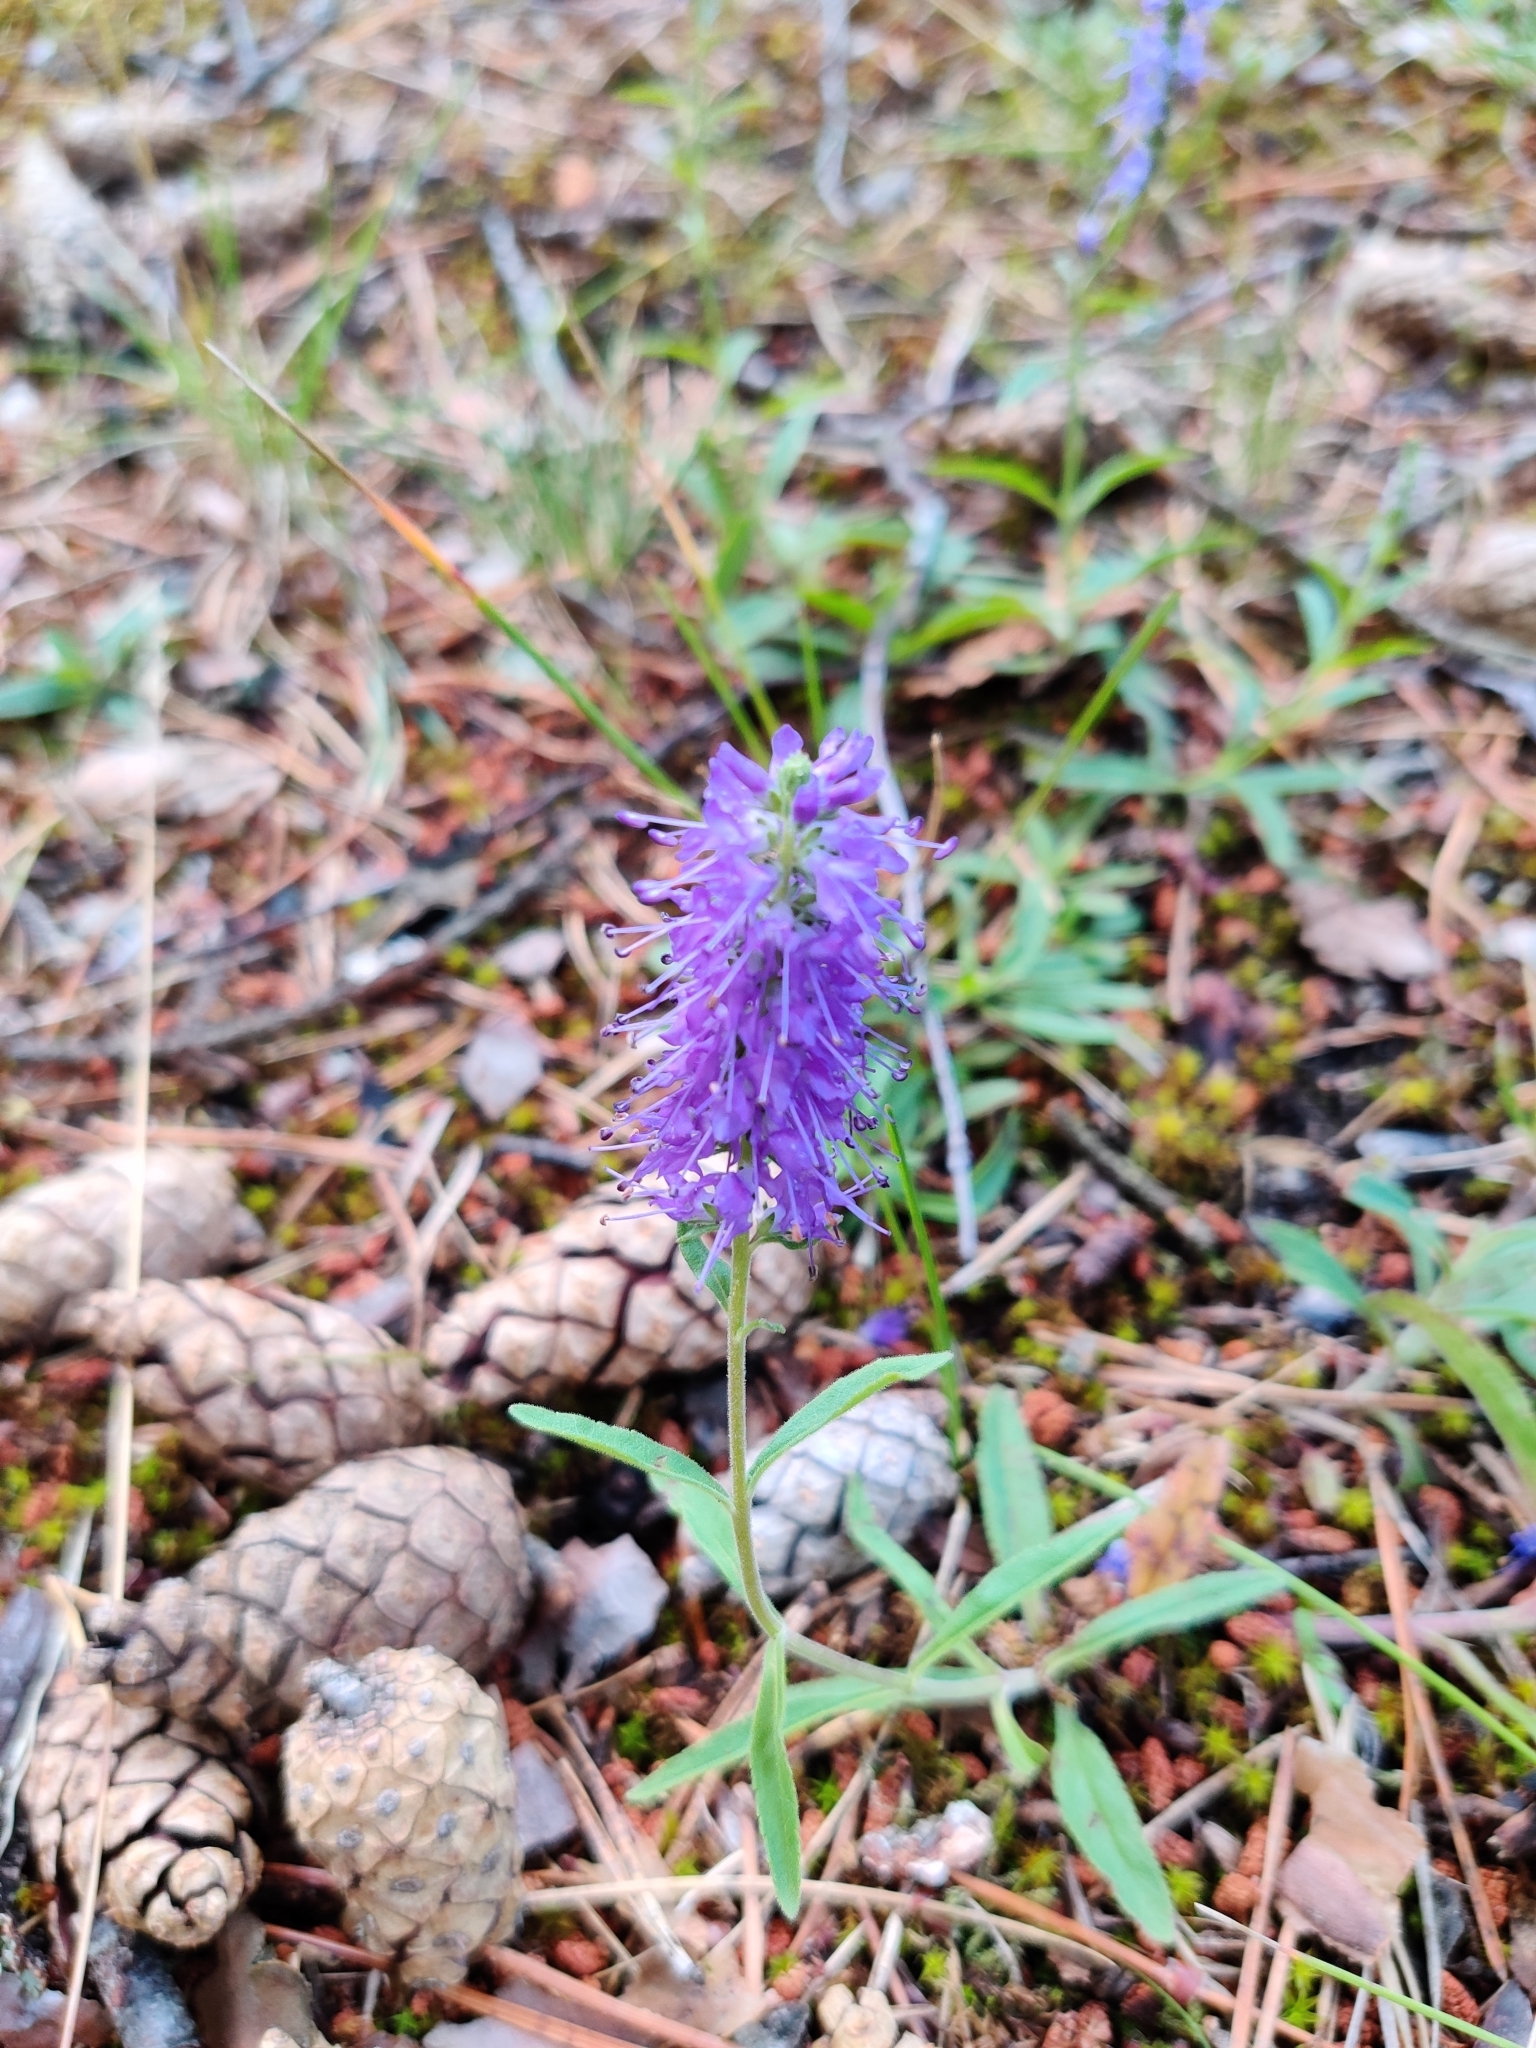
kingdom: Plantae
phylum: Tracheophyta
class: Magnoliopsida
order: Lamiales
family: Plantaginaceae
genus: Veronica
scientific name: Veronica spicata
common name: Spiked speedwell
